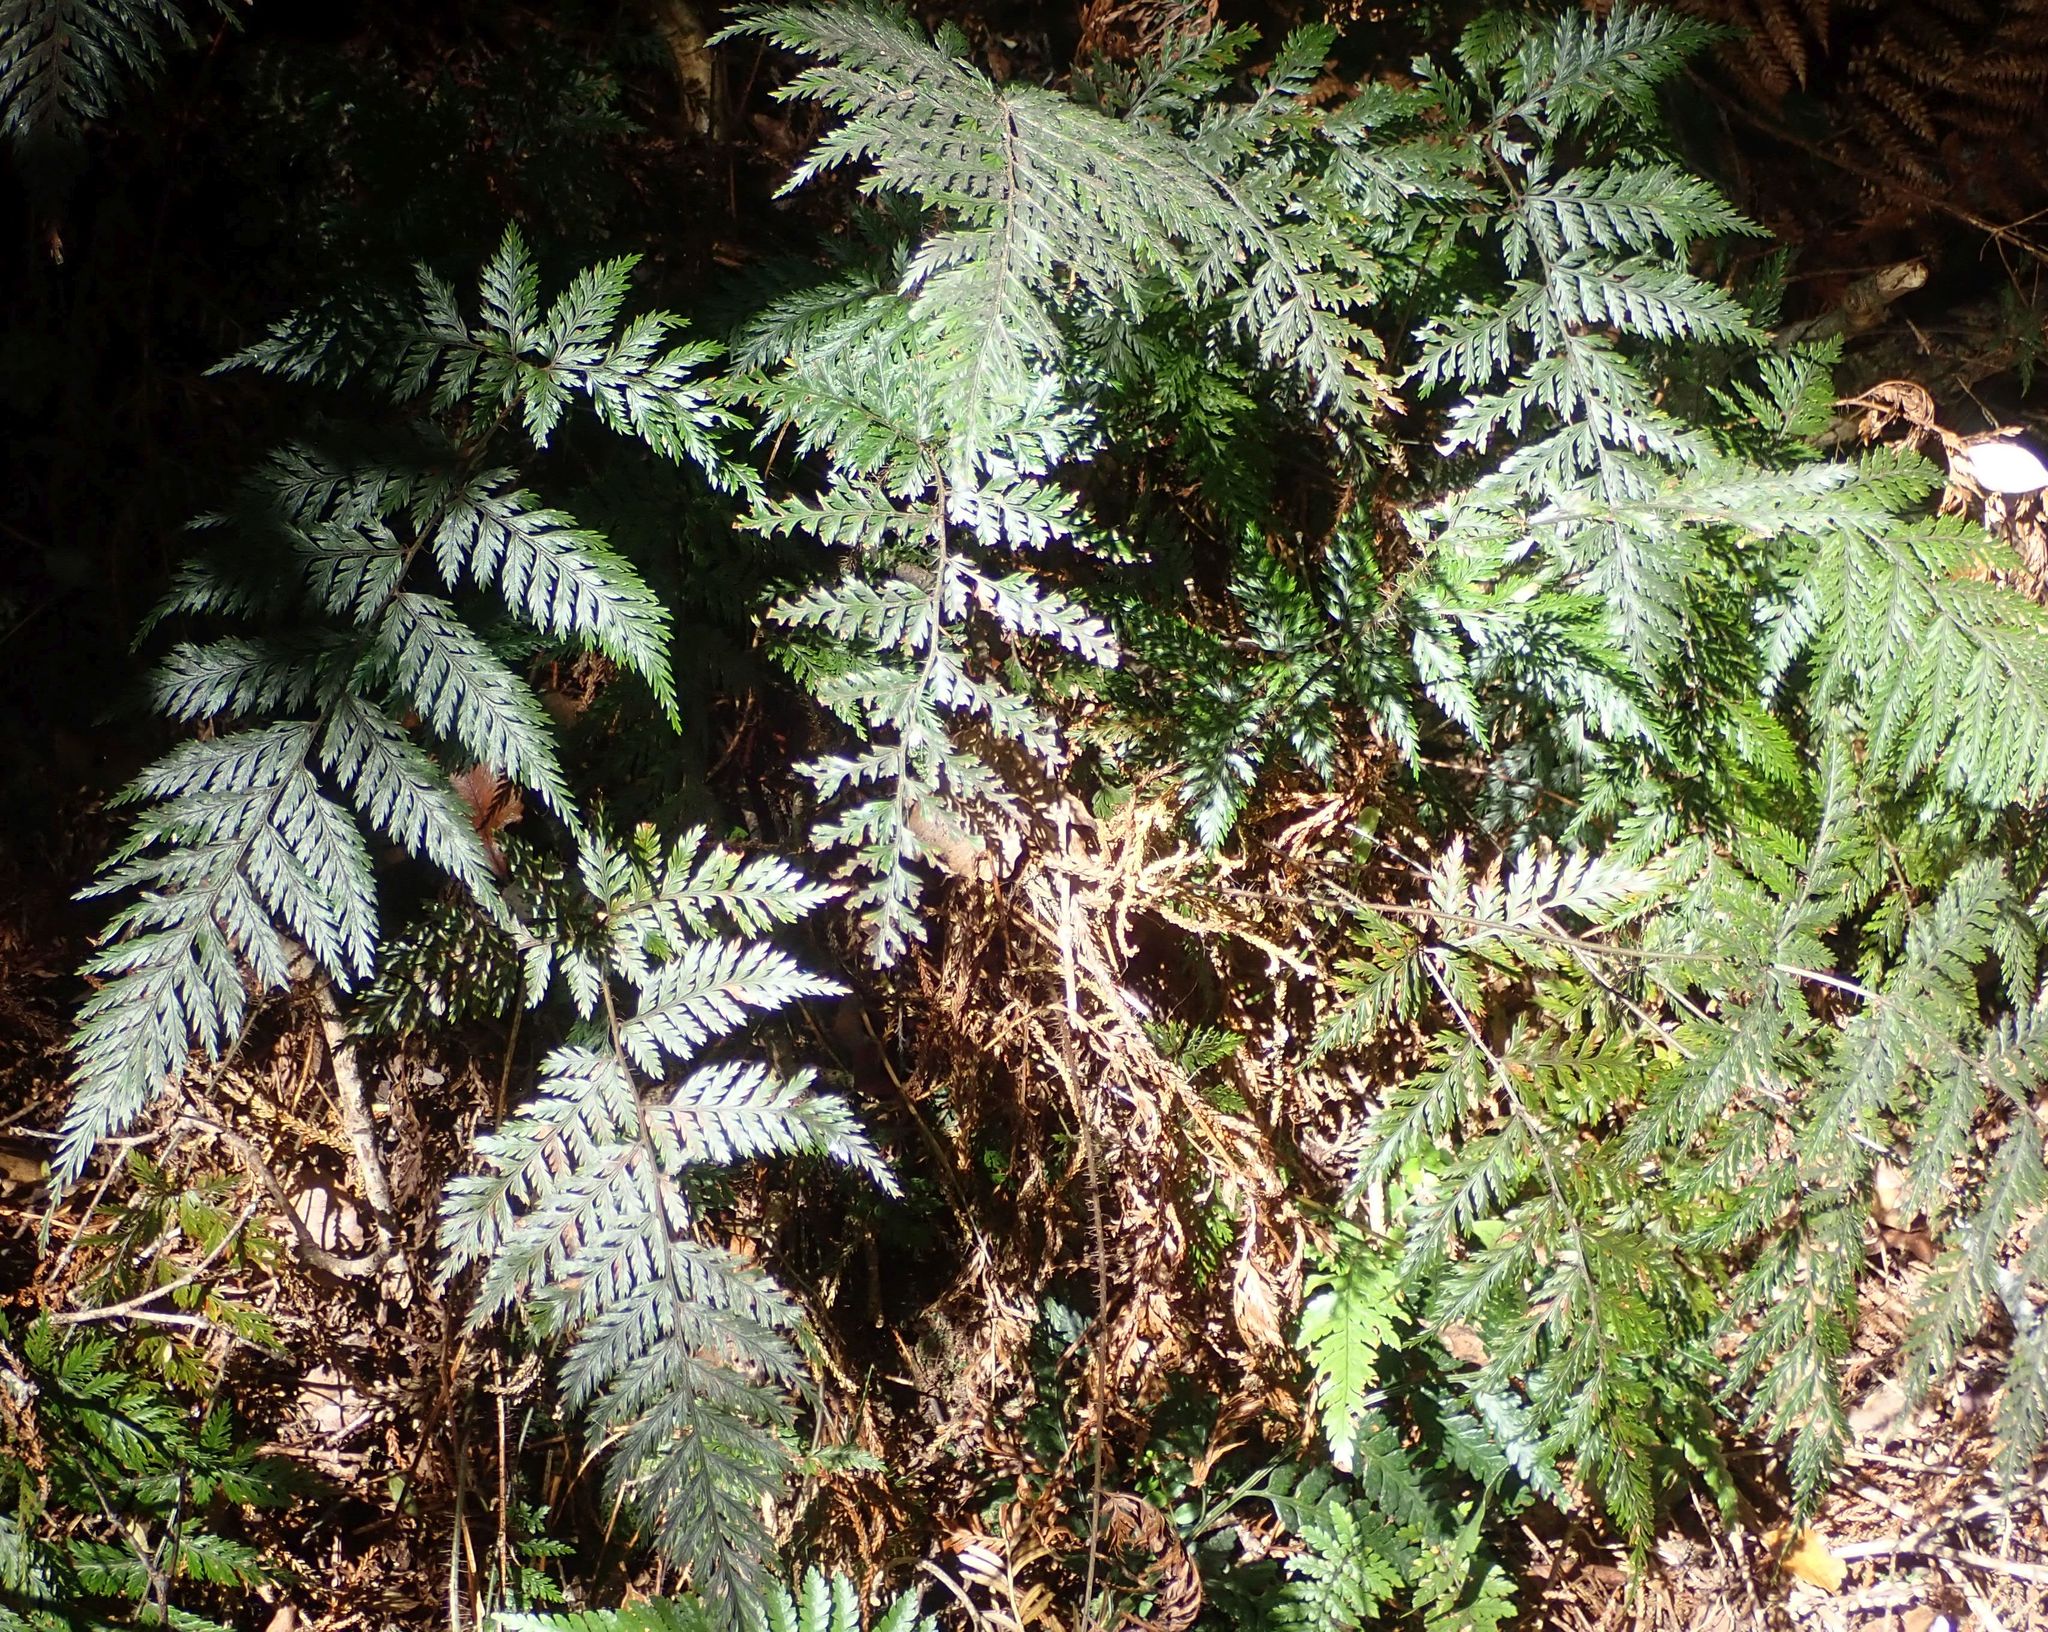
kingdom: Plantae
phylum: Tracheophyta
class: Polypodiopsida
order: Polypodiales
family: Dryopteridaceae
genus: Lastreopsis
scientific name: Lastreopsis hispida
